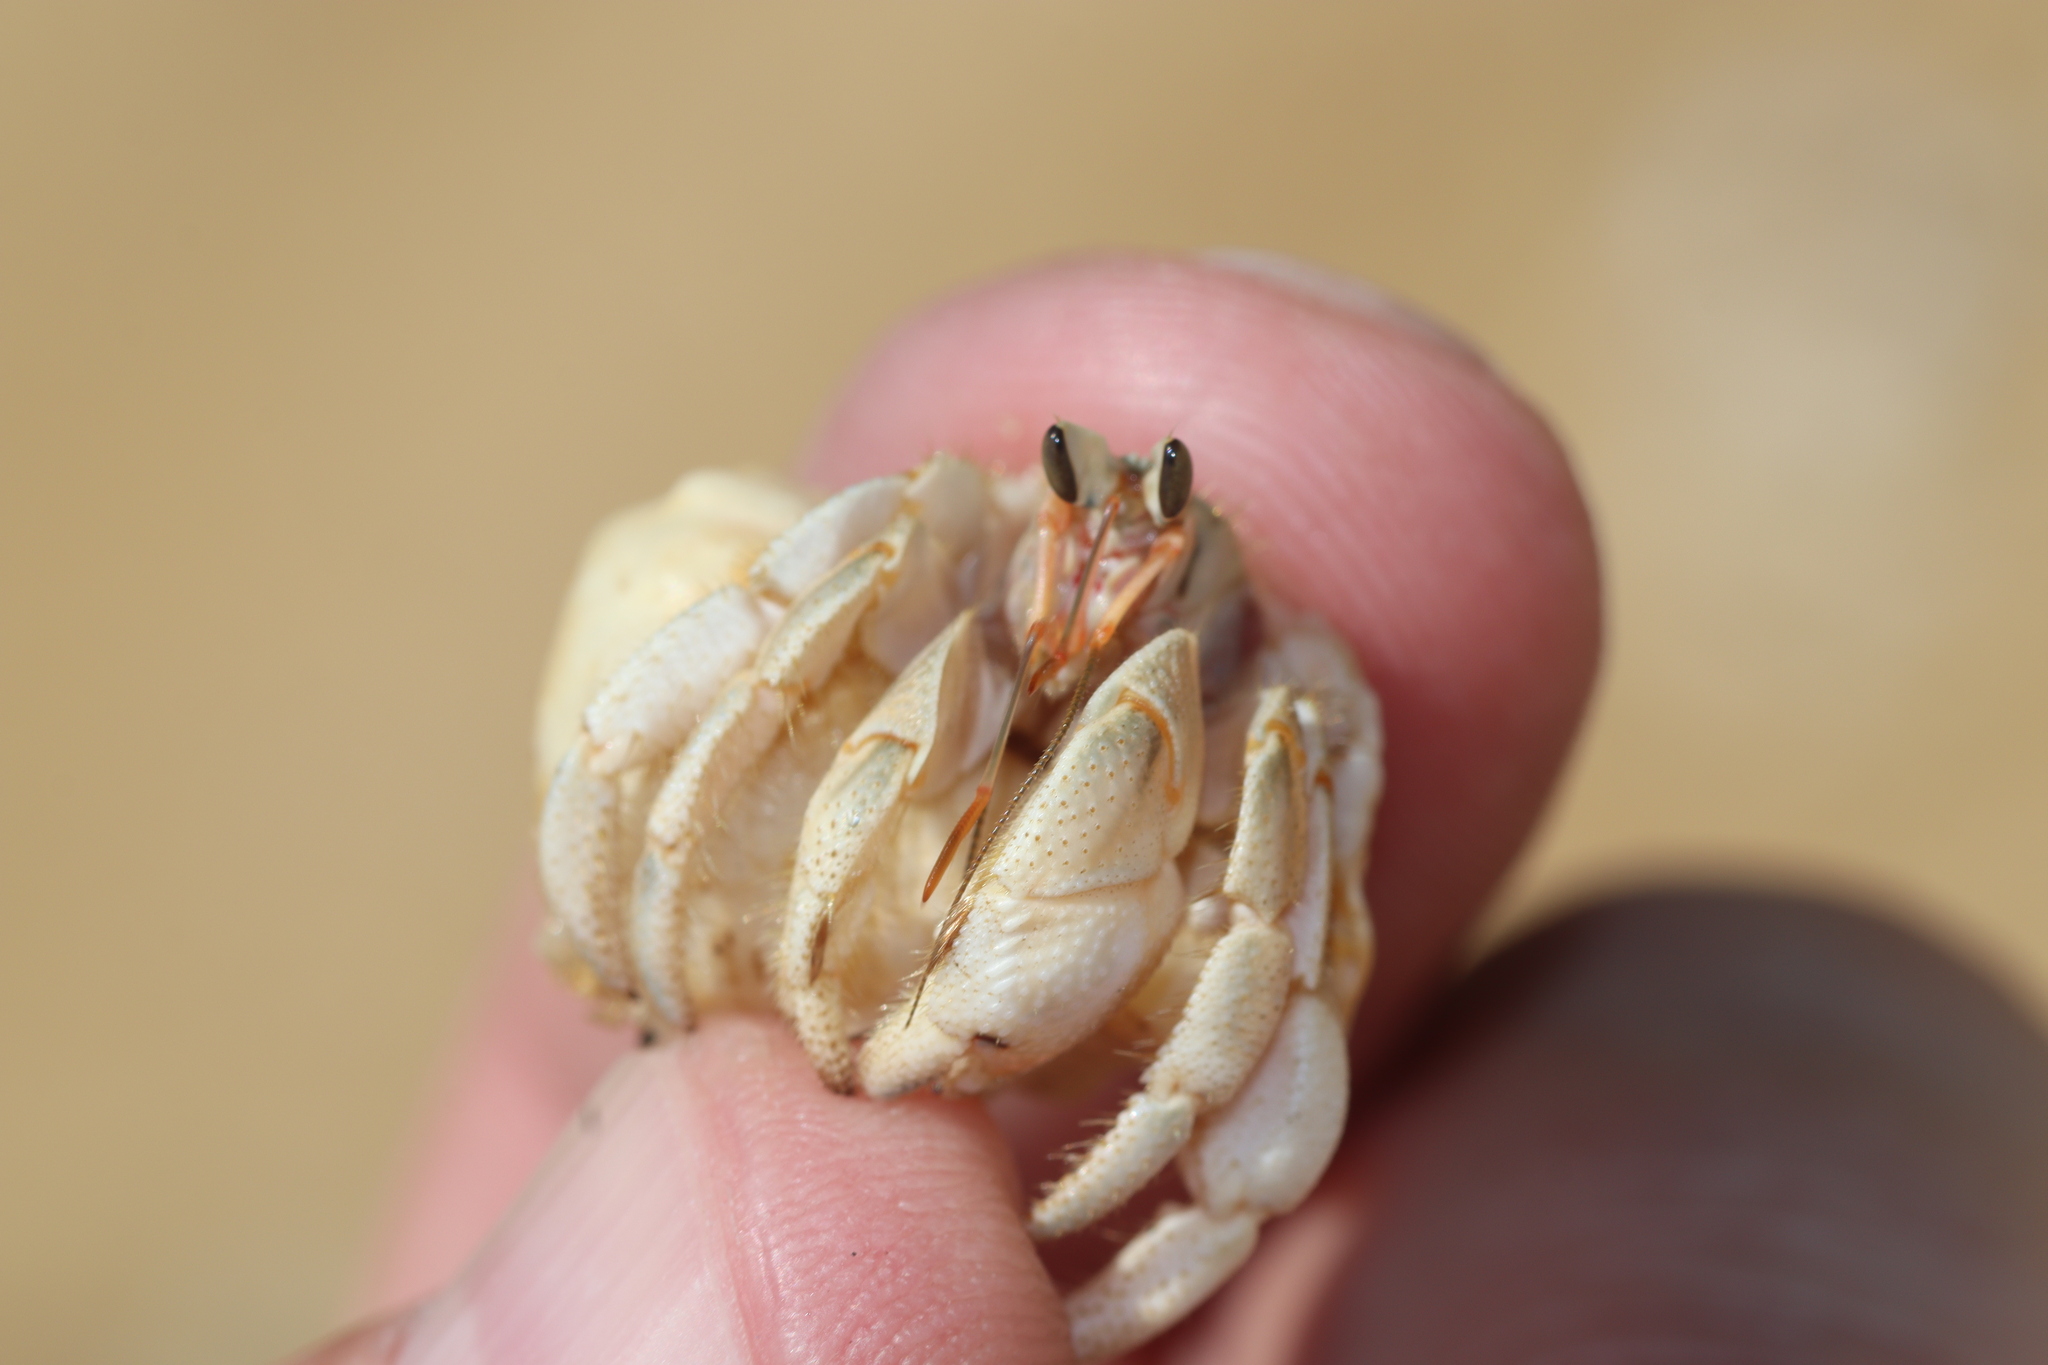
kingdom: Animalia
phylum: Arthropoda
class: Malacostraca
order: Decapoda
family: Coenobitidae
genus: Coenobita
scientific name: Coenobita rugosus
